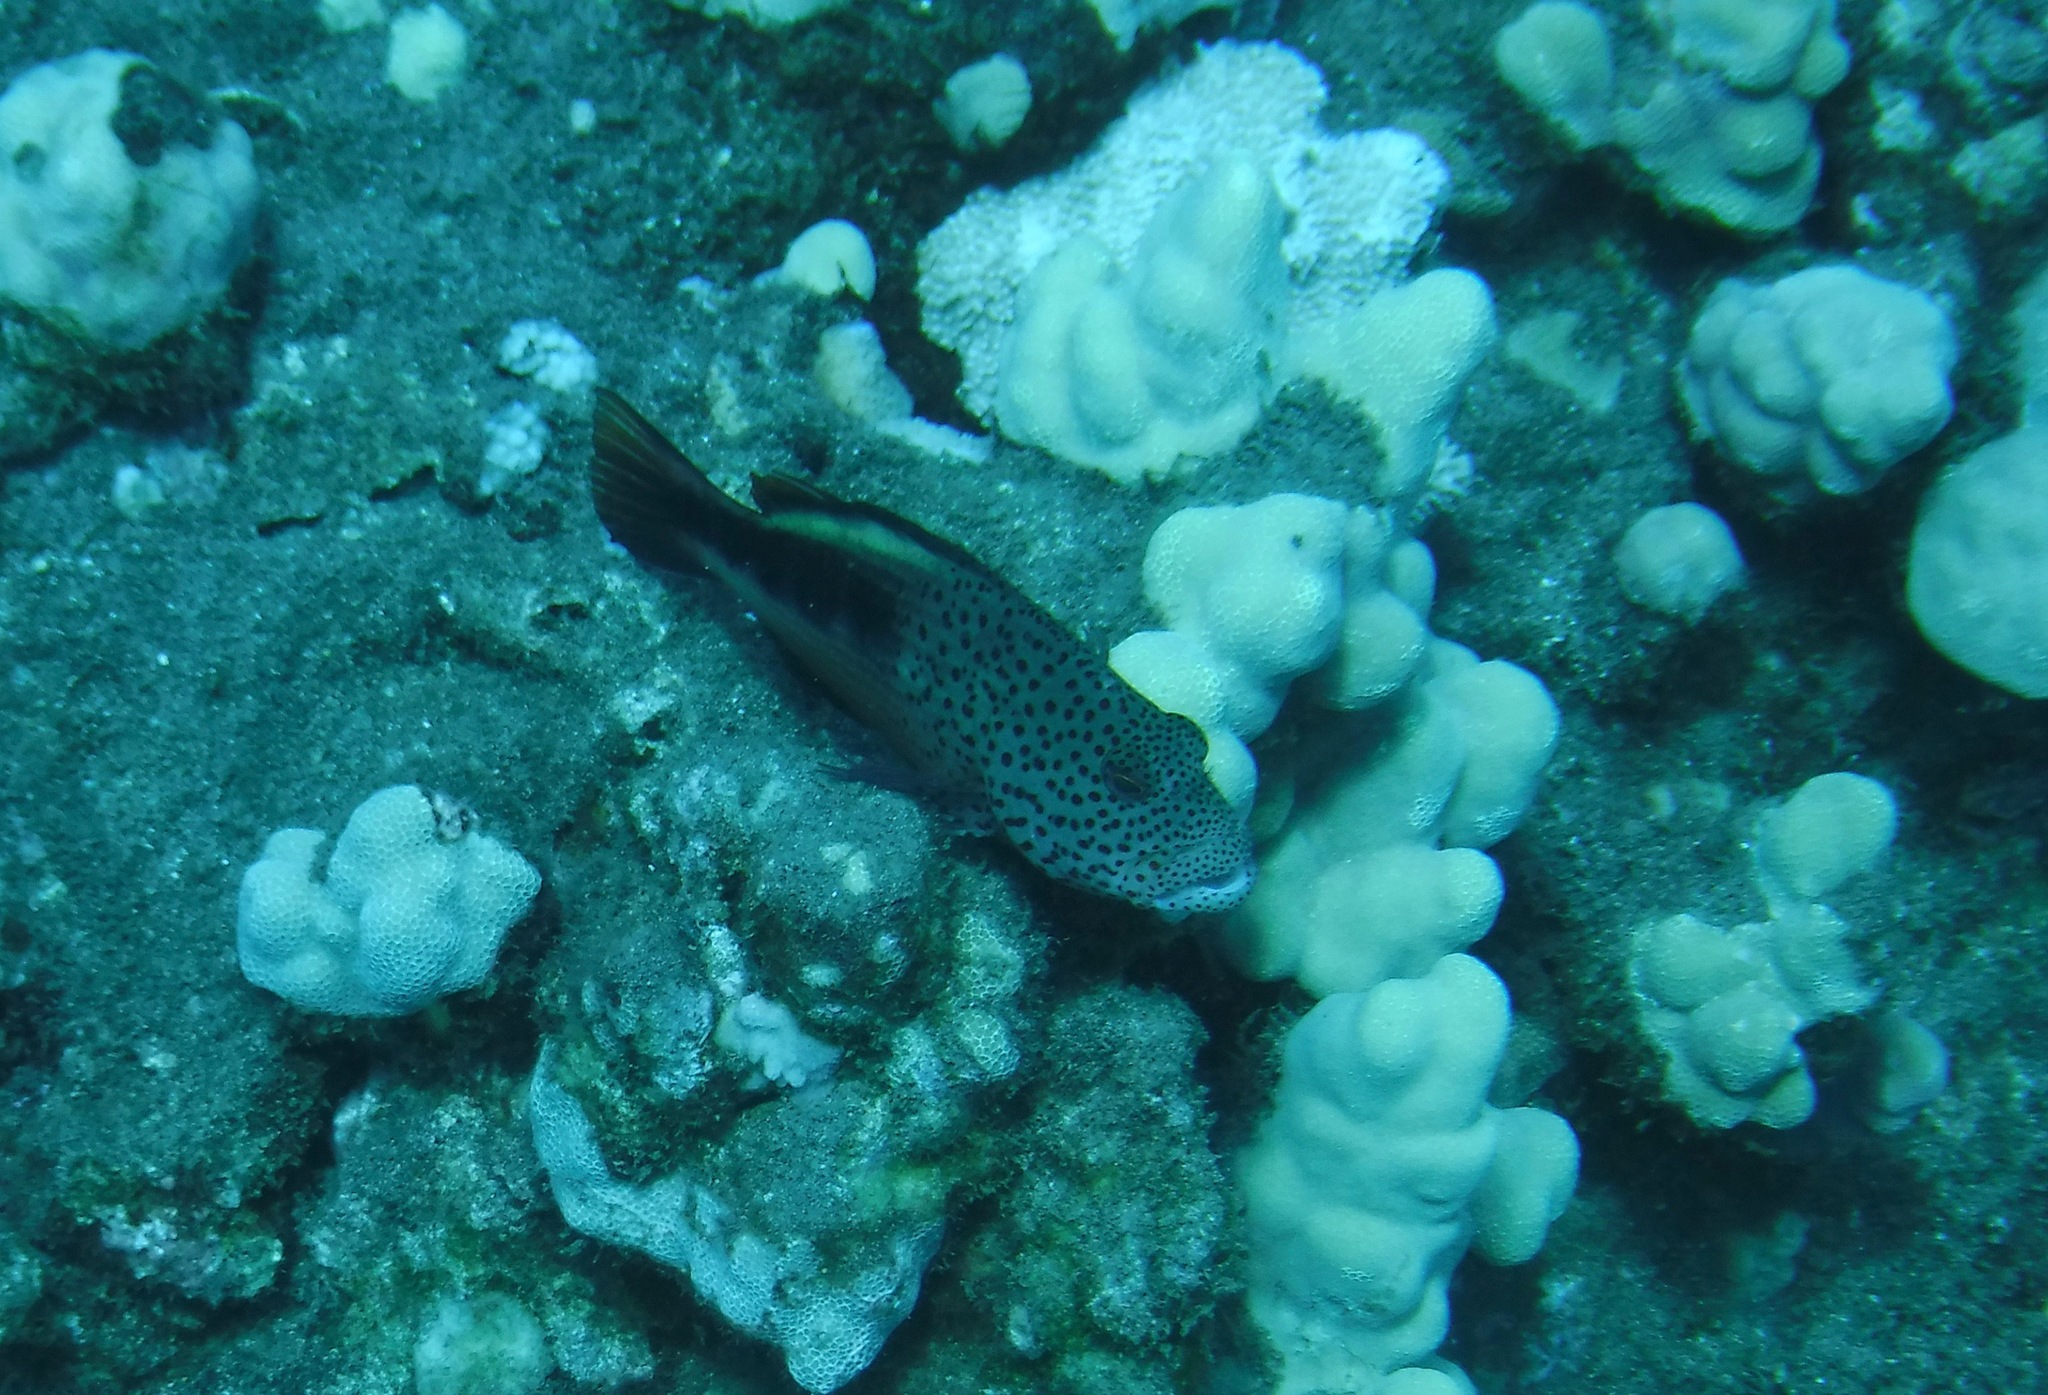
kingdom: Animalia
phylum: Chordata
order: Perciformes
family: Cirrhitidae
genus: Paracirrhites
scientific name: Paracirrhites forsteri
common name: Freckled hawkfish
